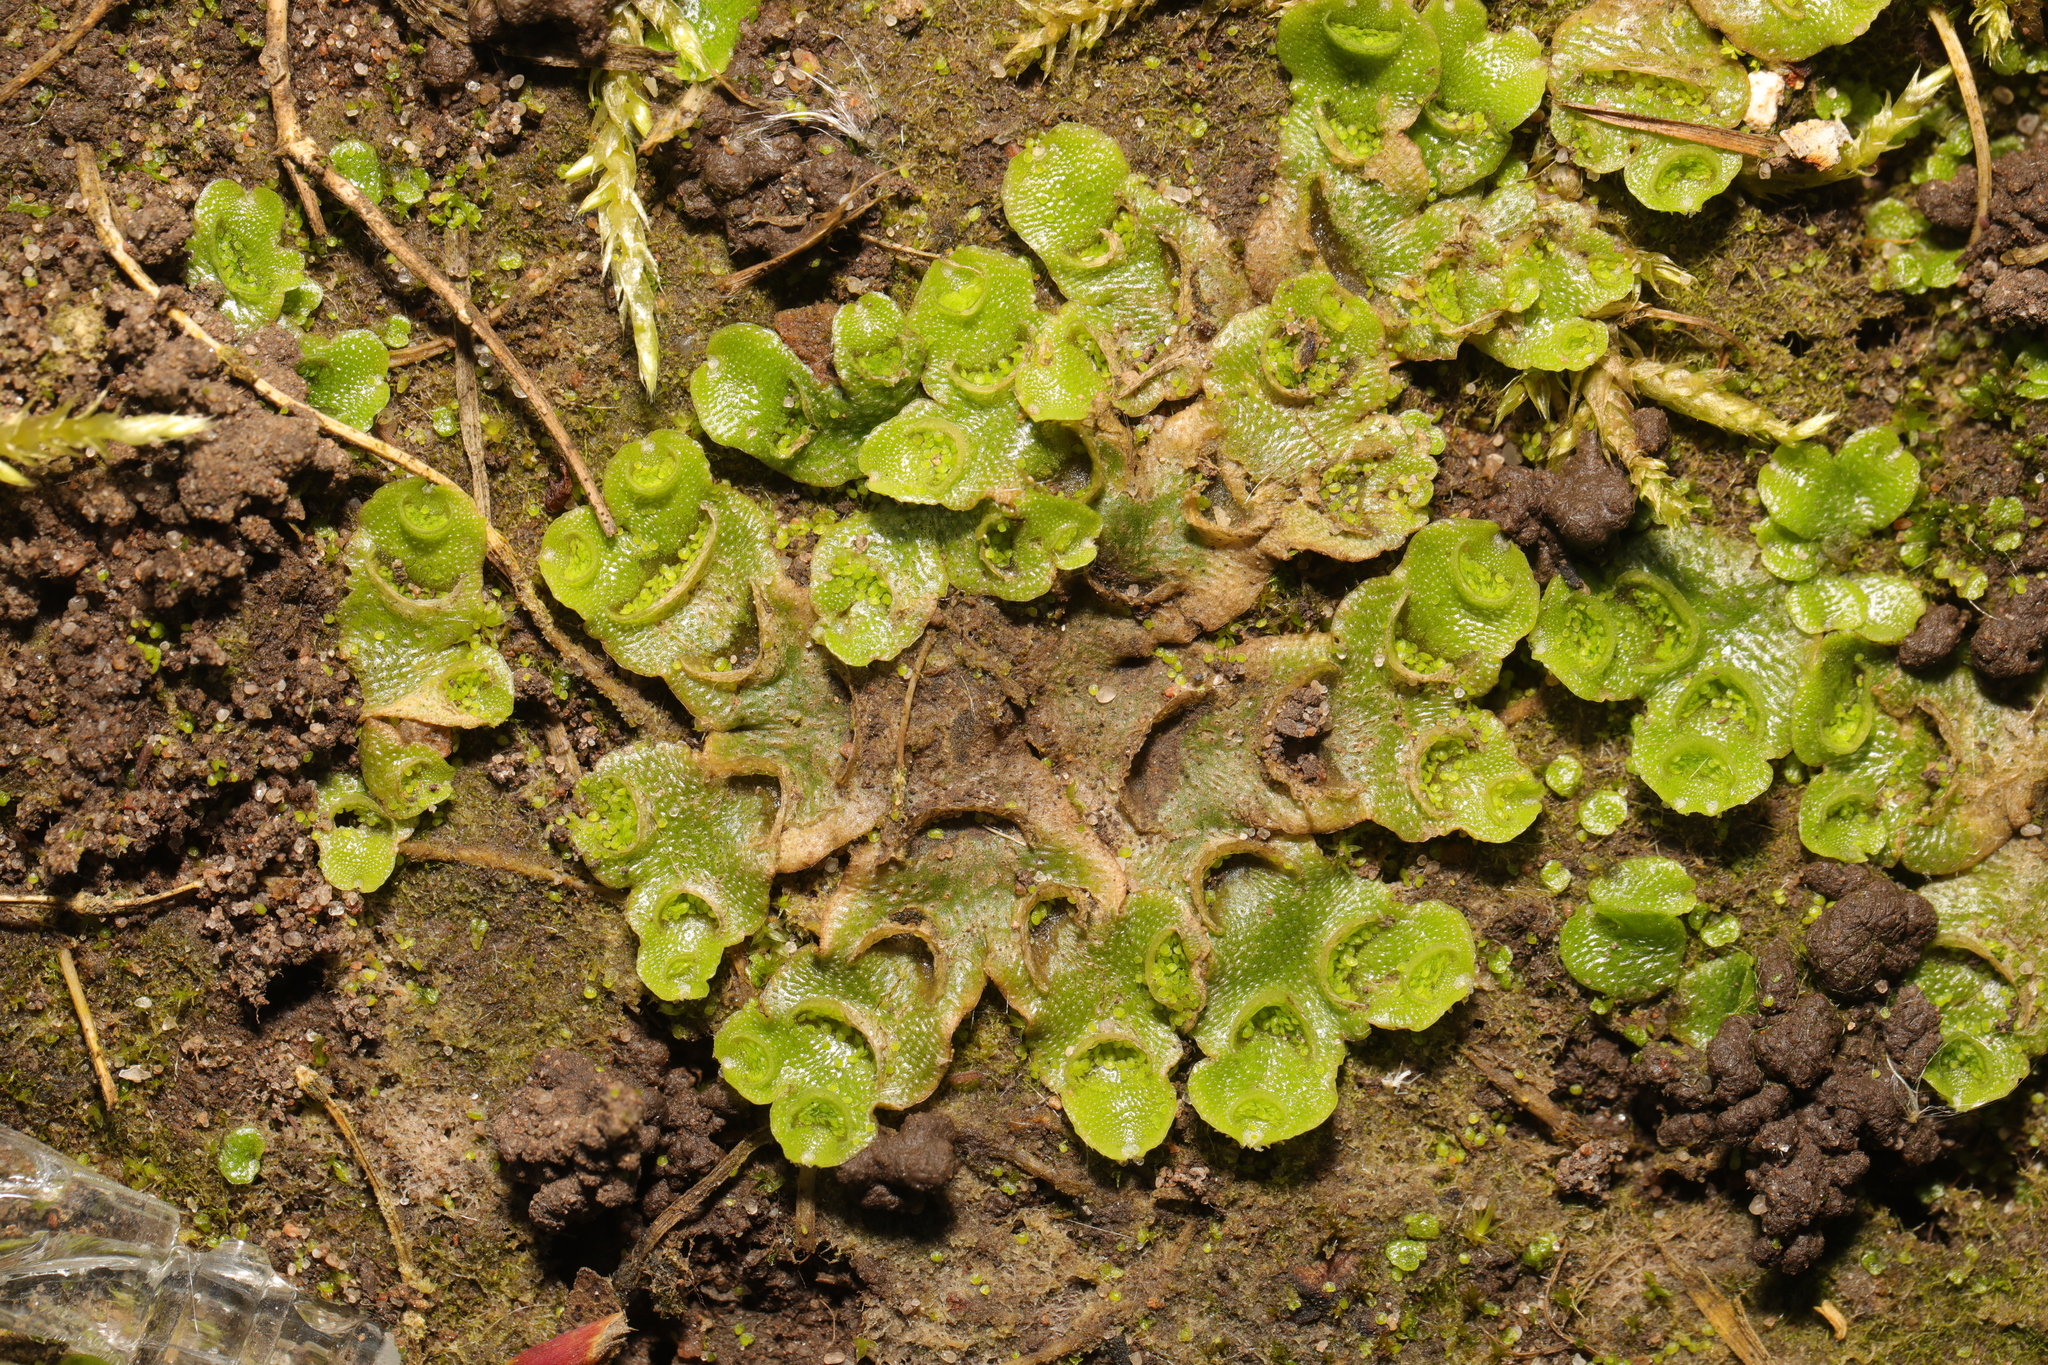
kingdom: Plantae
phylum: Marchantiophyta
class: Marchantiopsida
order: Lunulariales
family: Lunulariaceae
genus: Lunularia
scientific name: Lunularia cruciata
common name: Crescent-cup liverwort
